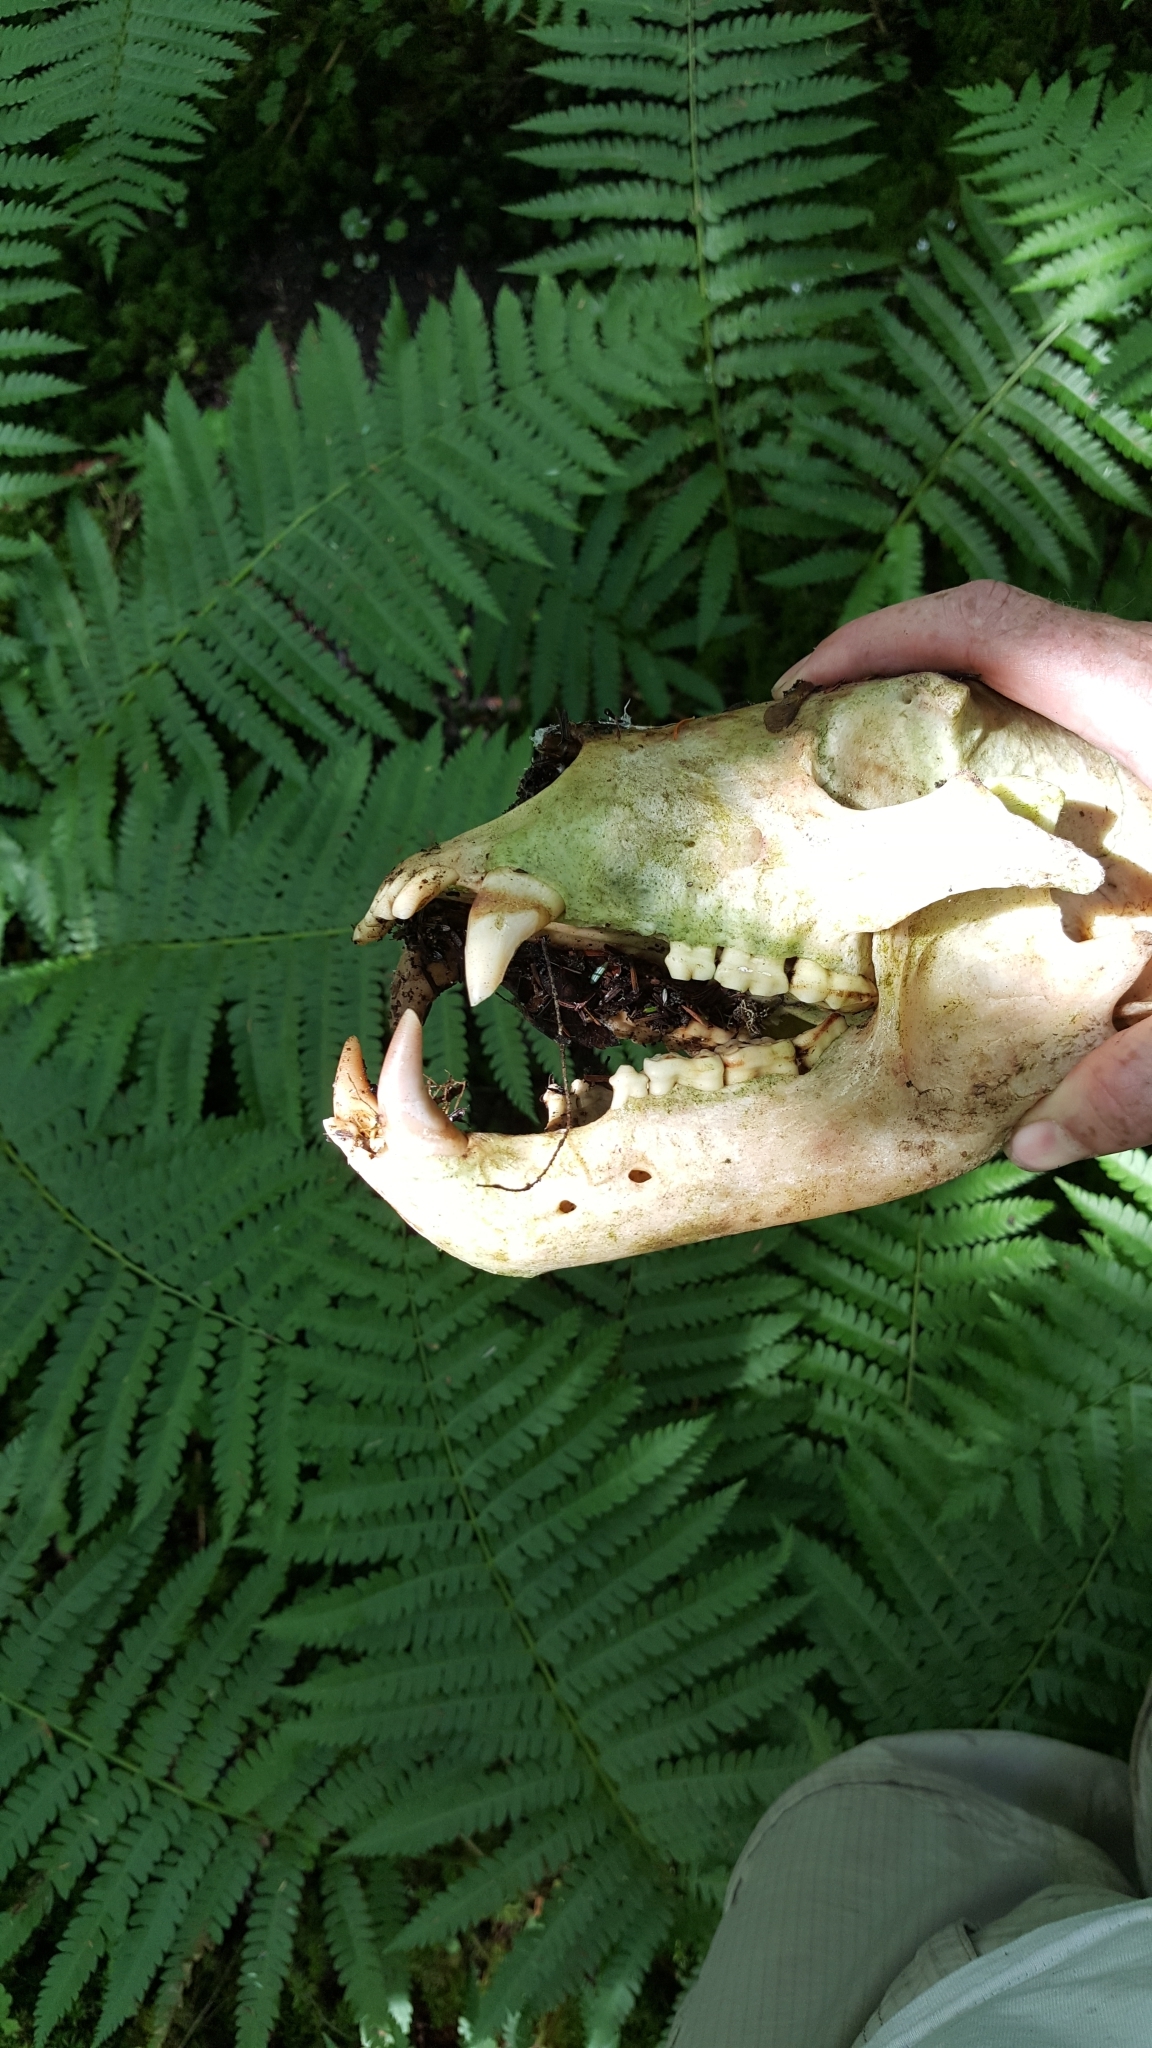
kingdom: Animalia
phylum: Chordata
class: Mammalia
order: Carnivora
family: Ursidae
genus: Ursus
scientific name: Ursus americanus
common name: American black bear
